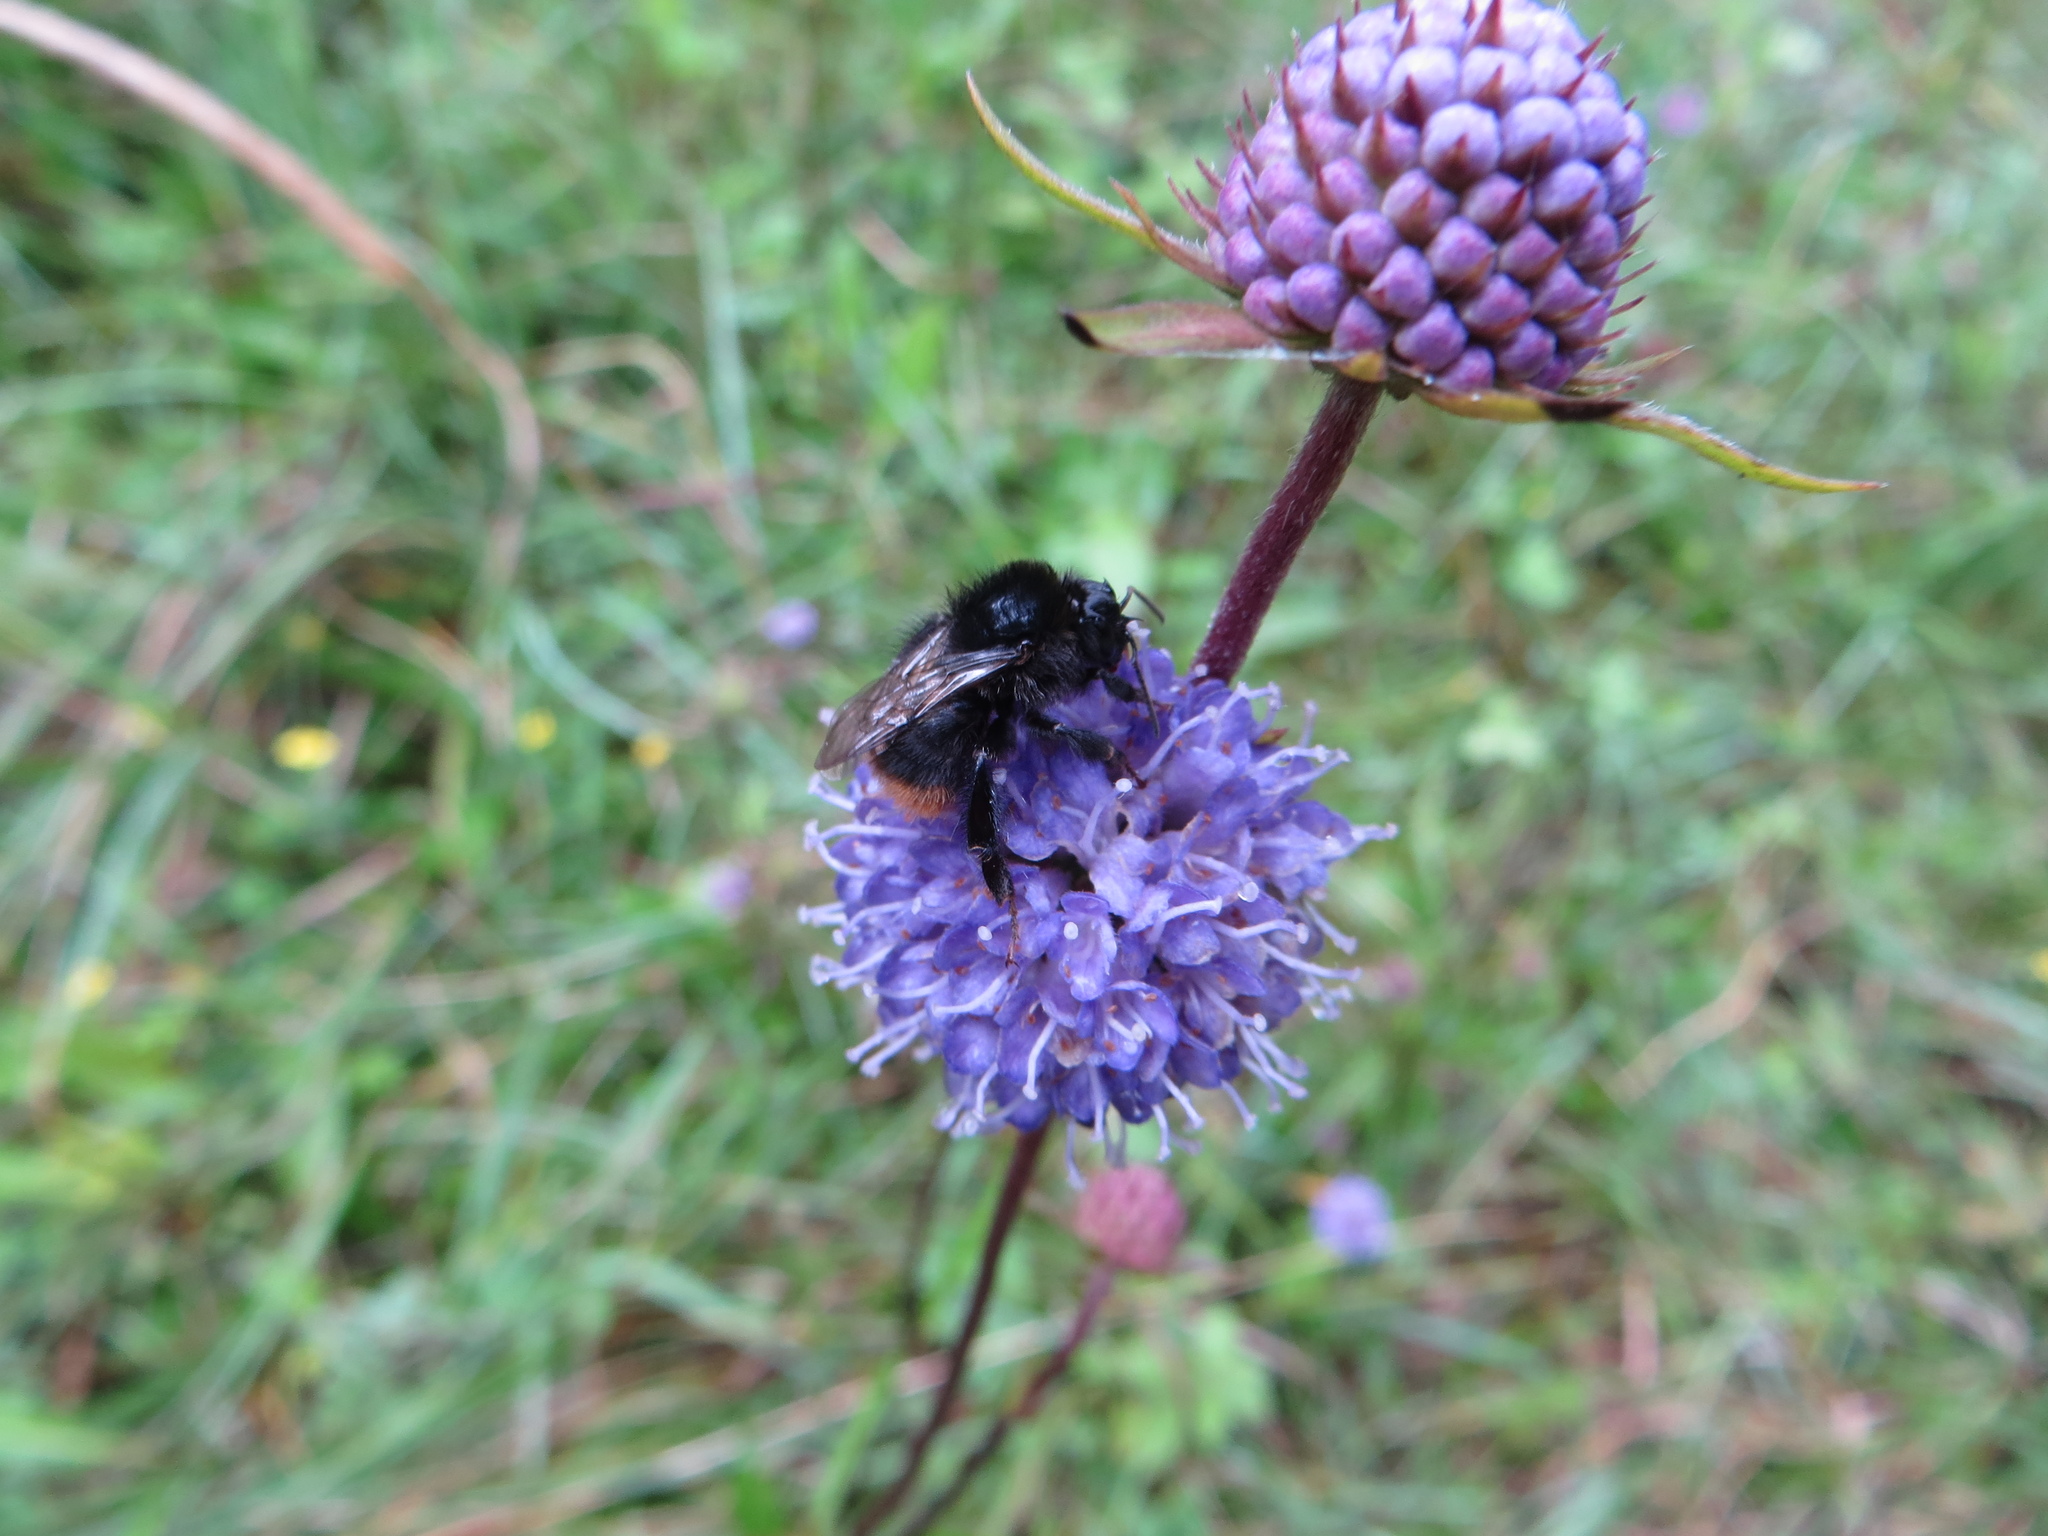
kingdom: Animalia
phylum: Arthropoda
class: Insecta
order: Hymenoptera
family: Apidae
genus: Bombus
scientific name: Bombus lapidarius
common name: Large red-tailed humble-bee
